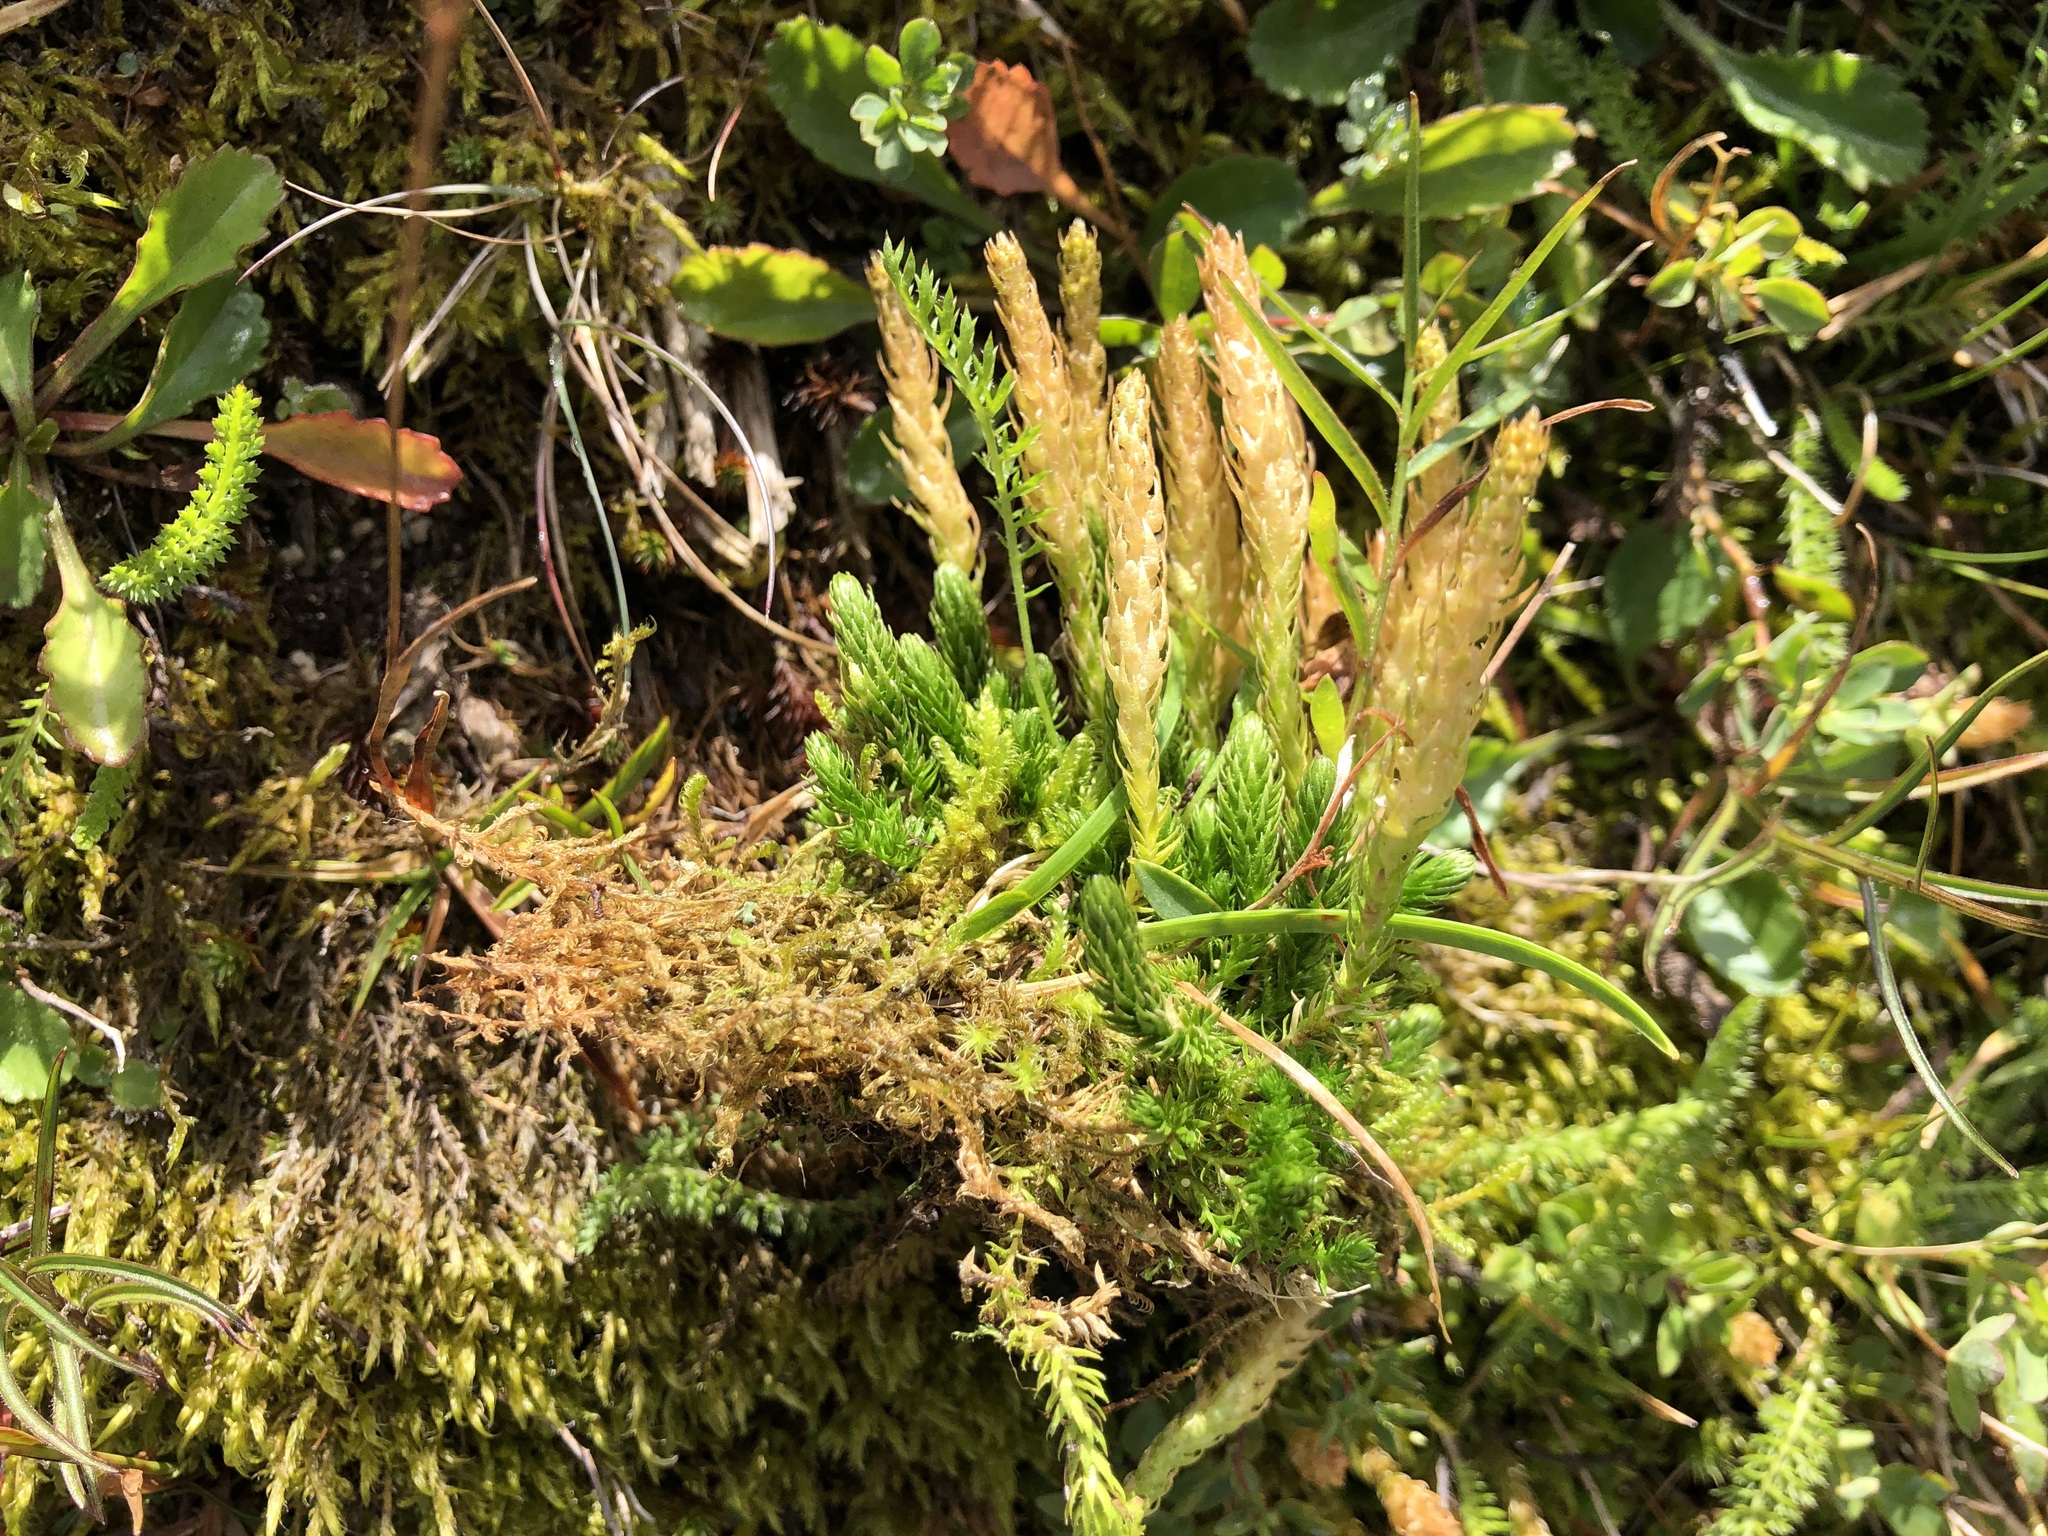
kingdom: Plantae
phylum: Tracheophyta
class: Lycopodiopsida
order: Selaginellales
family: Selaginellaceae
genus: Selaginella
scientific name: Selaginella selaginoides
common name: Prickly mountain-moss
